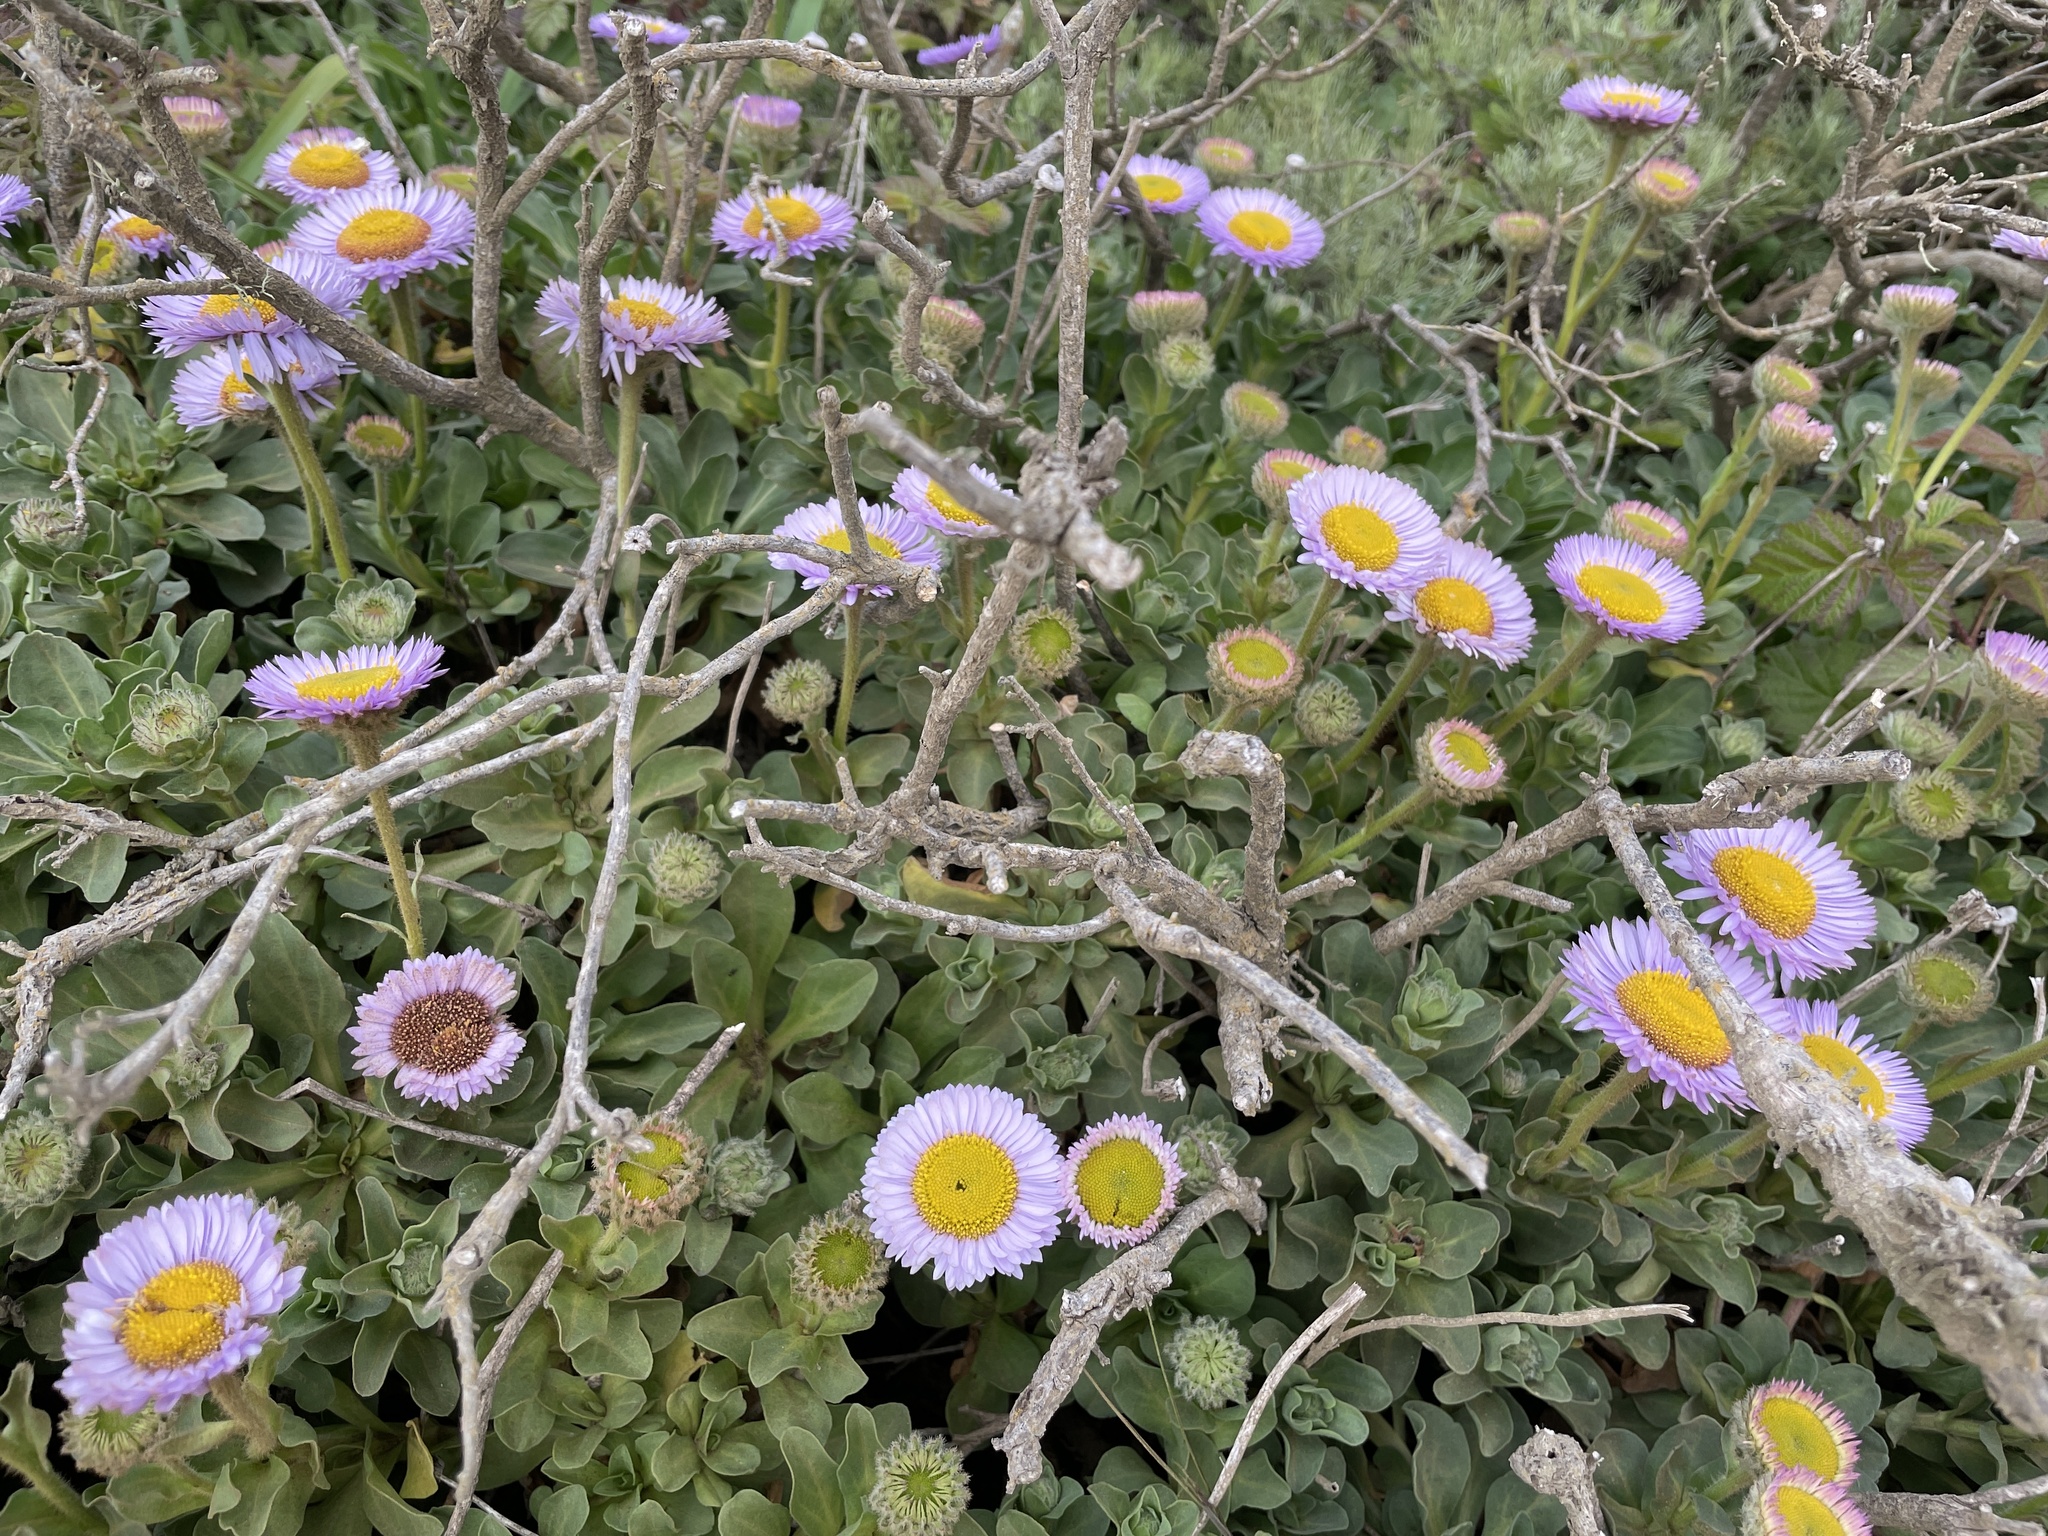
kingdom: Plantae
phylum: Tracheophyta
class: Magnoliopsida
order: Asterales
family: Asteraceae
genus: Erigeron
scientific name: Erigeron glaucus
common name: Seaside daisy
